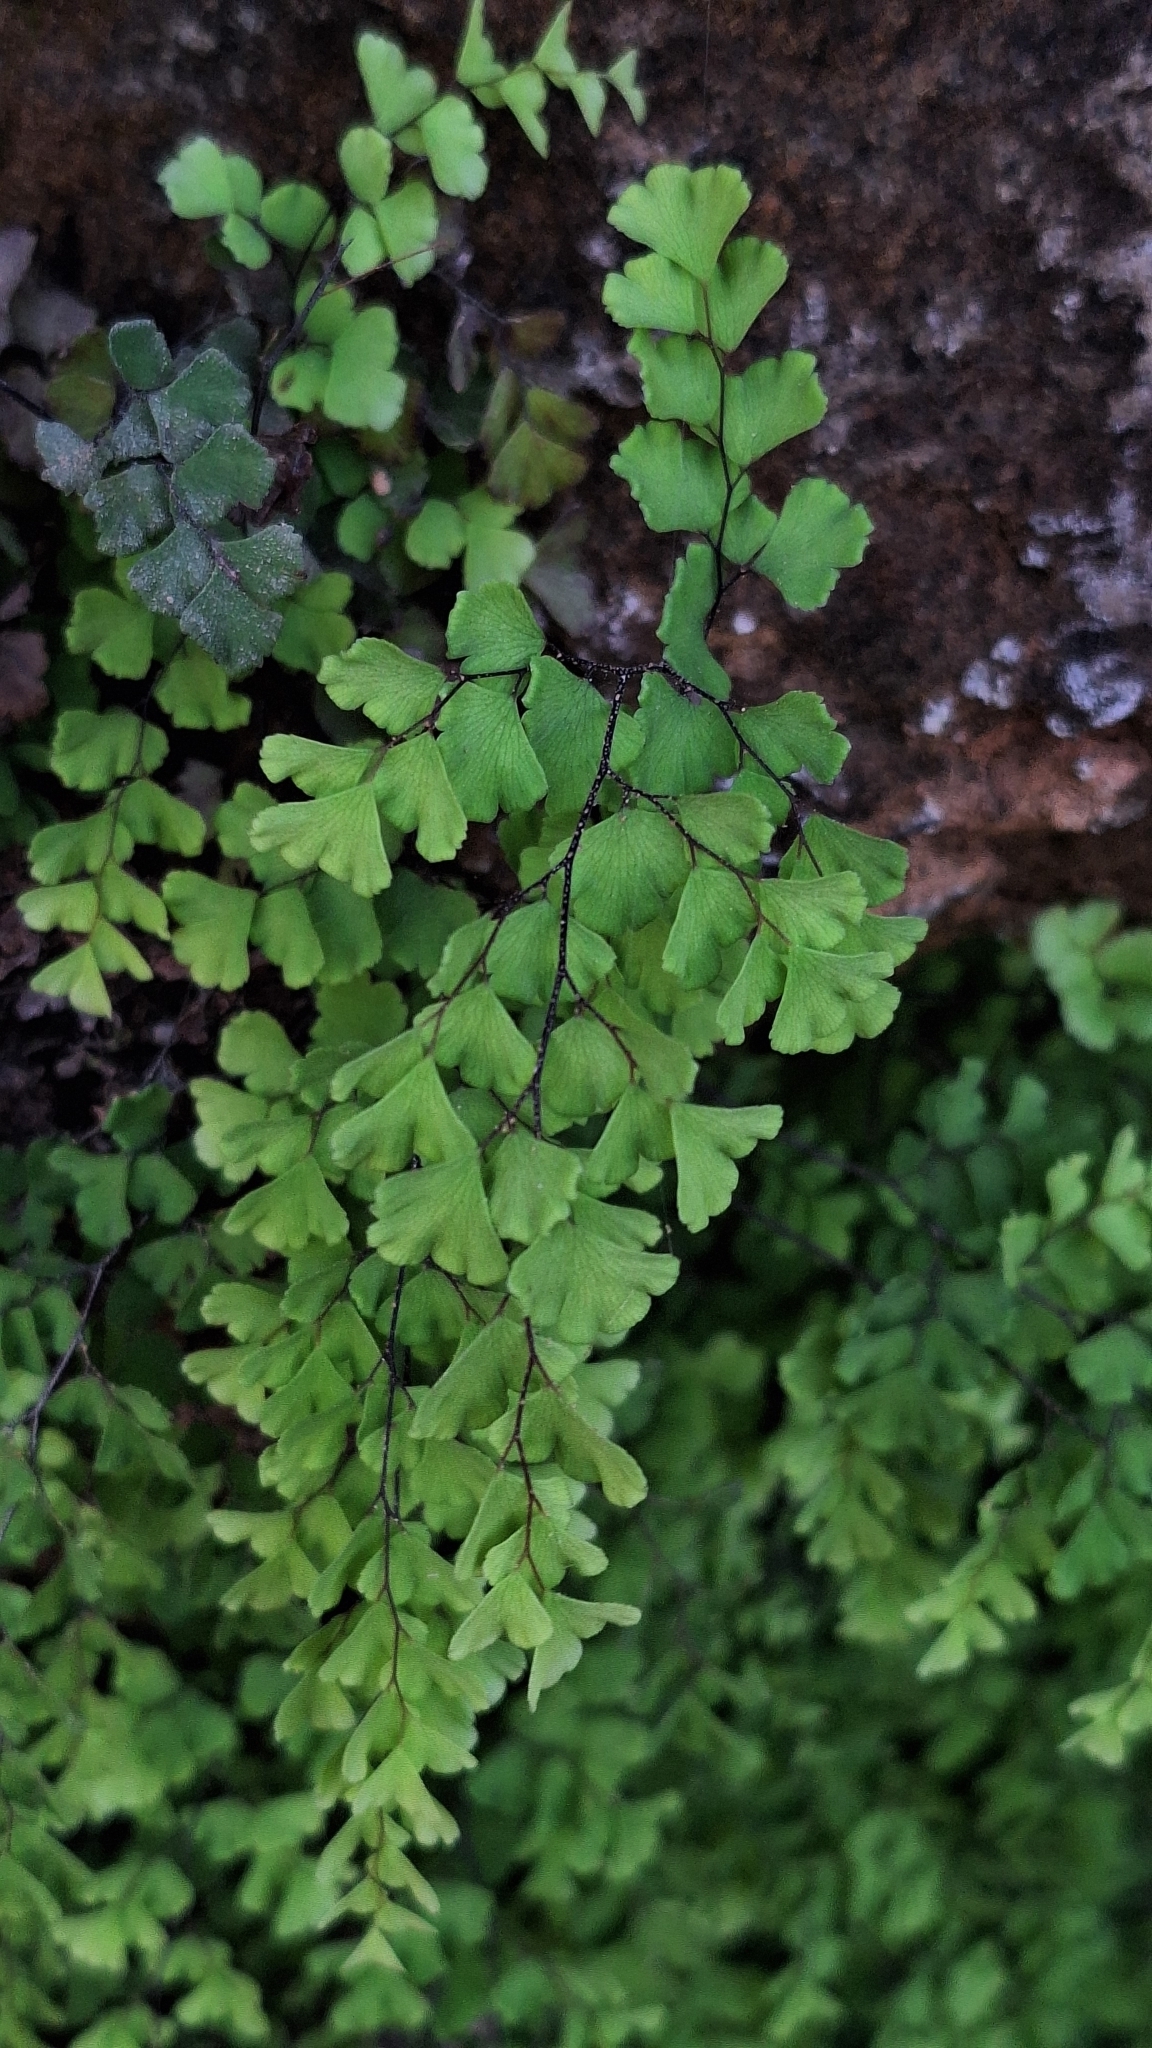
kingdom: Plantae
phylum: Tracheophyta
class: Polypodiopsida
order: Polypodiales
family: Pteridaceae
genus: Adiantum
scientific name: Adiantum capillus-veneris
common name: Maidenhair fern
